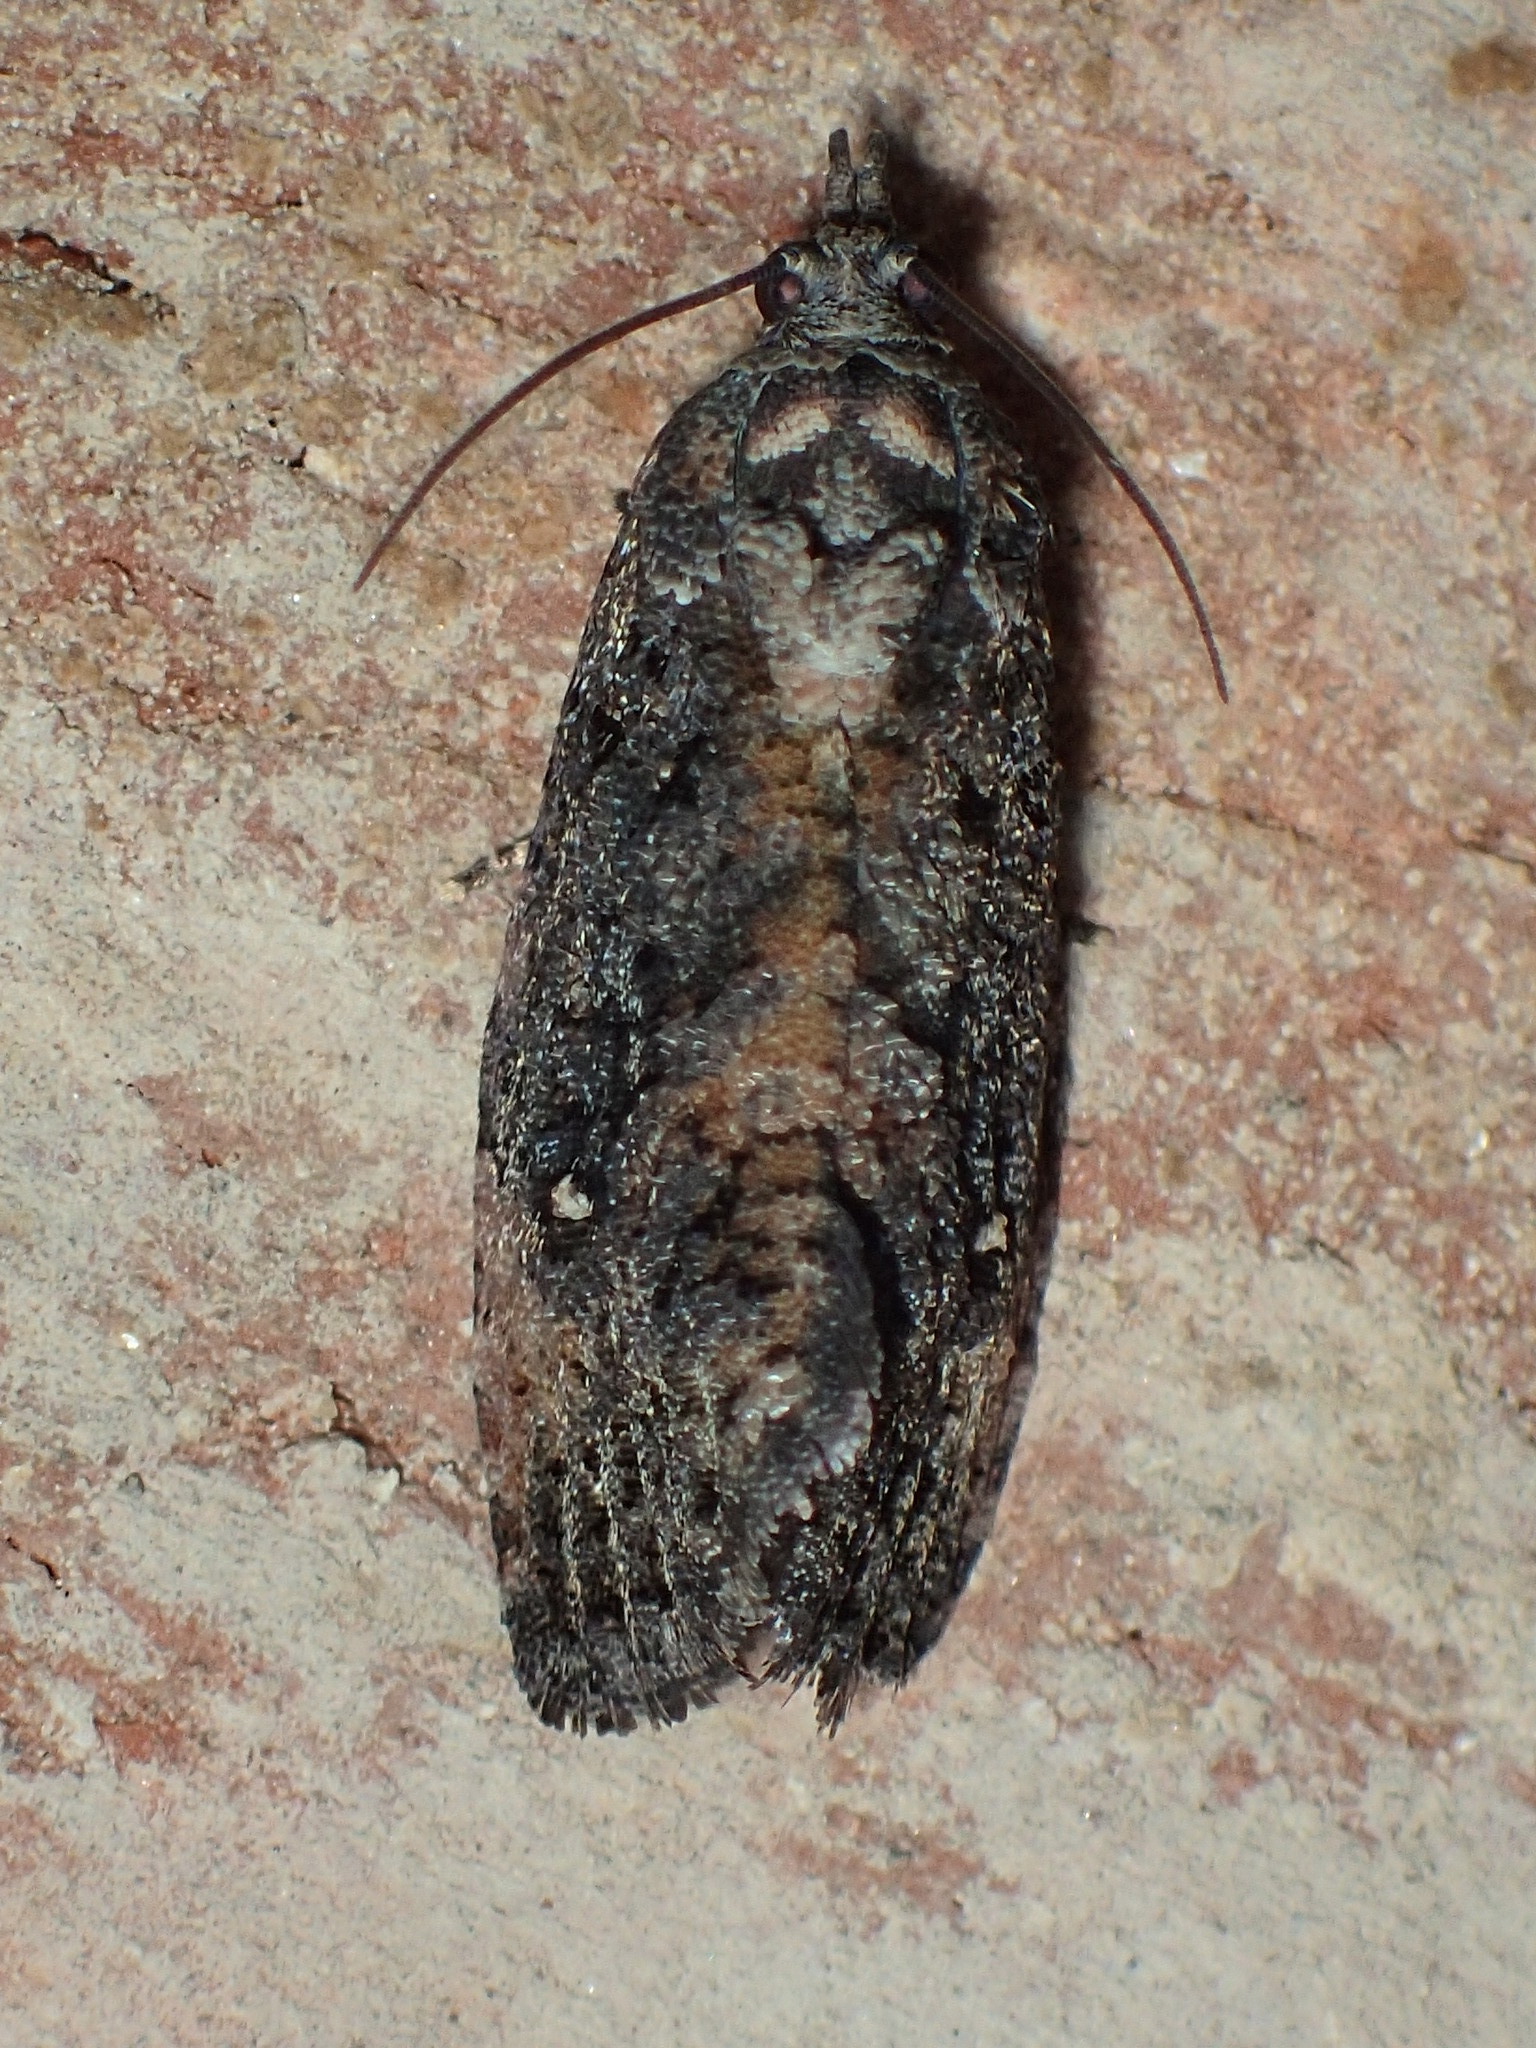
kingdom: Animalia
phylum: Arthropoda
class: Insecta
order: Lepidoptera
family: Tortricidae
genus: Gymnandrosoma
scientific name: Gymnandrosoma punctidiscanum
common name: Dotted ecdytolopha moth
